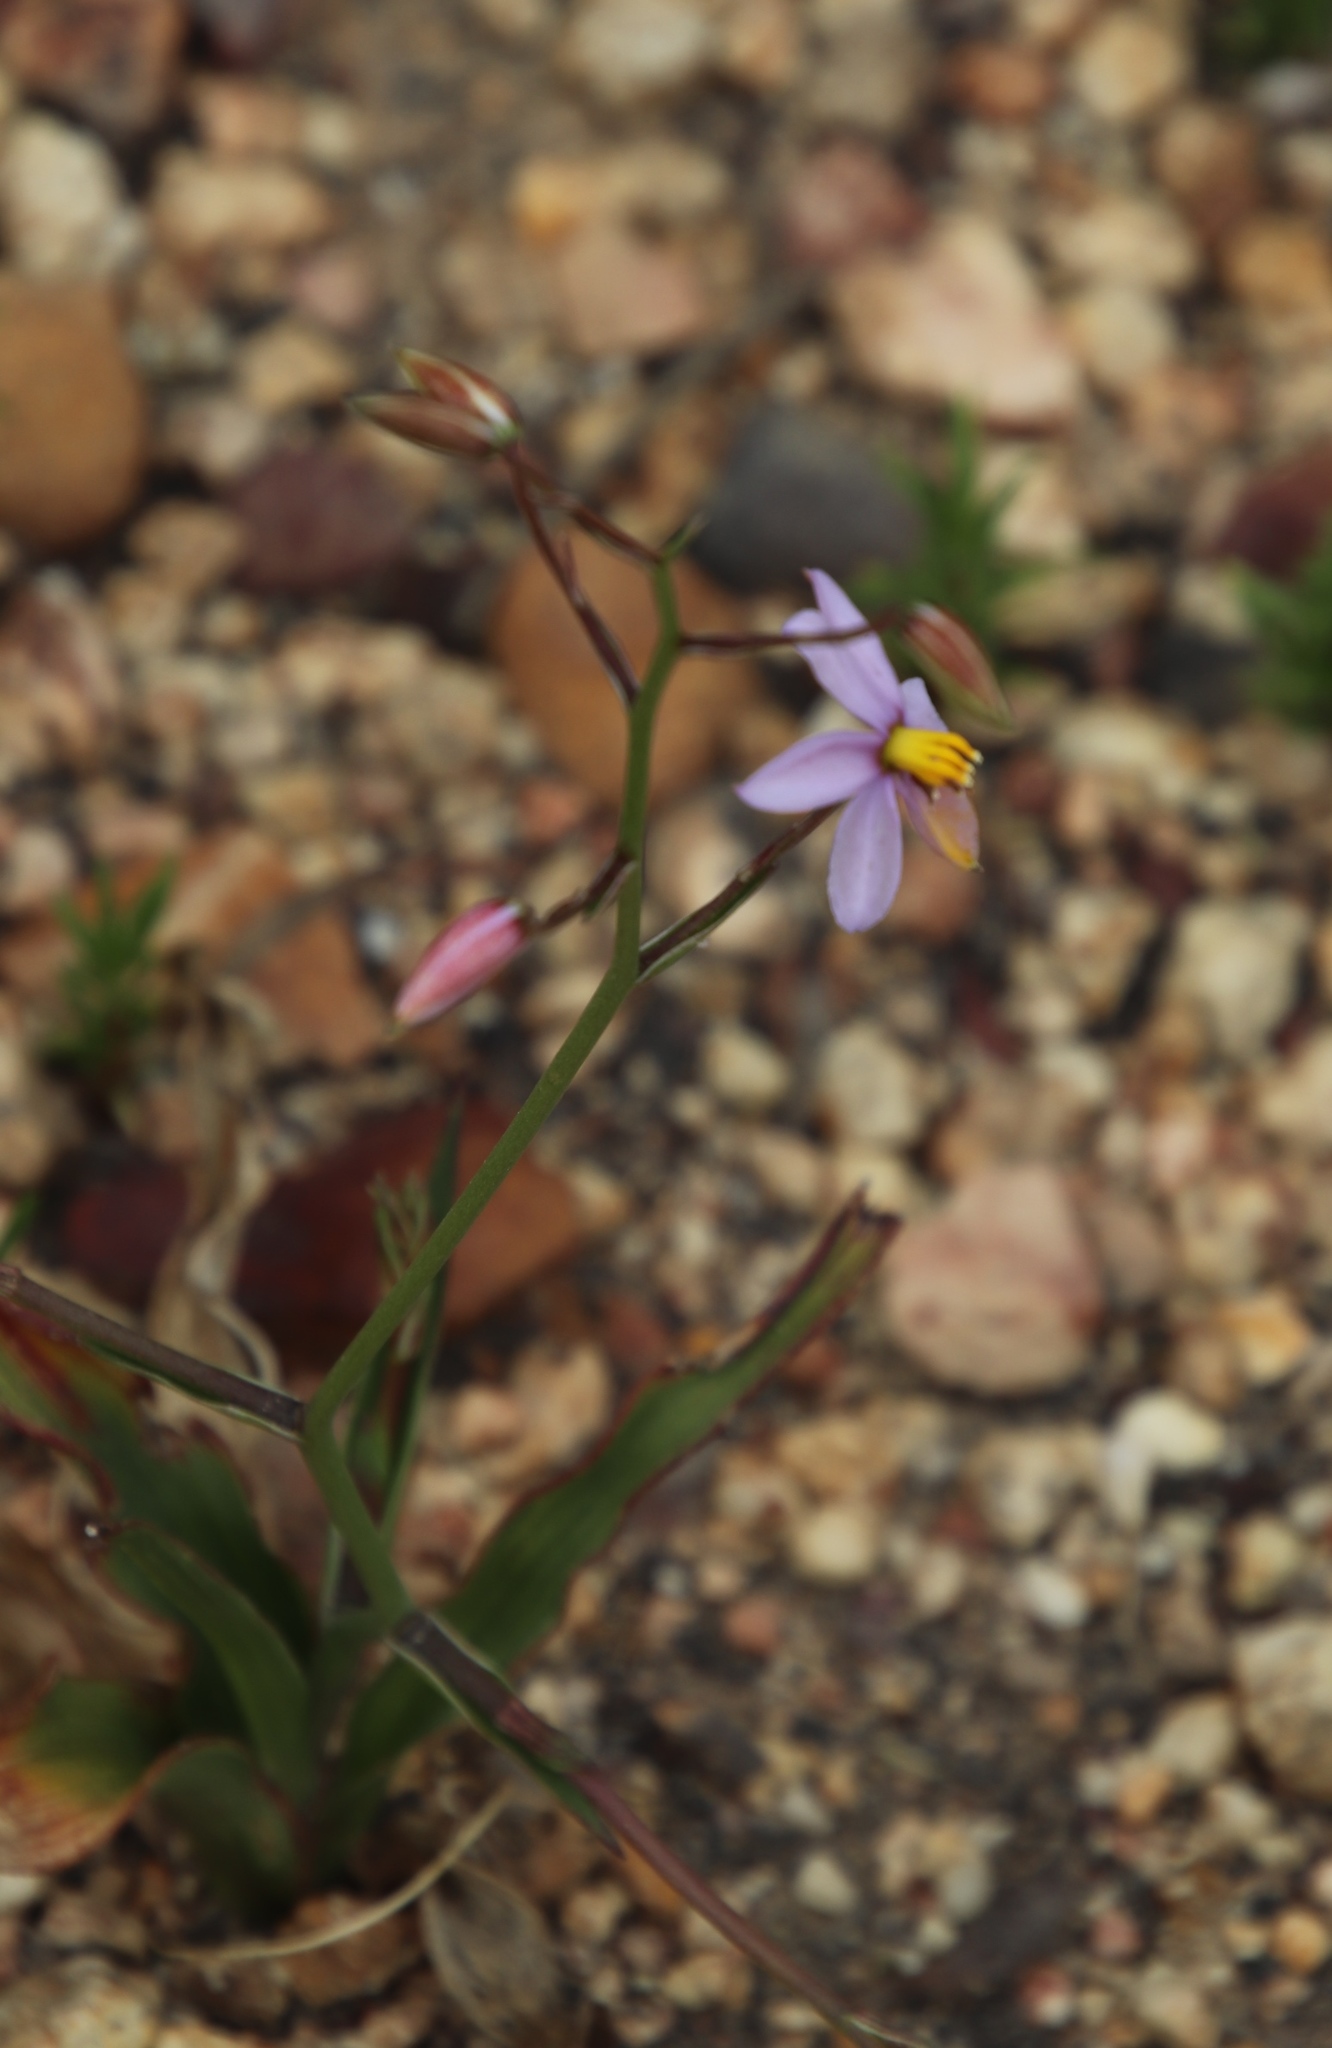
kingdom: Plantae
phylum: Tracheophyta
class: Liliopsida
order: Asparagales
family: Tecophilaeaceae
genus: Cyanella
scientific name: Cyanella hyacinthoides
